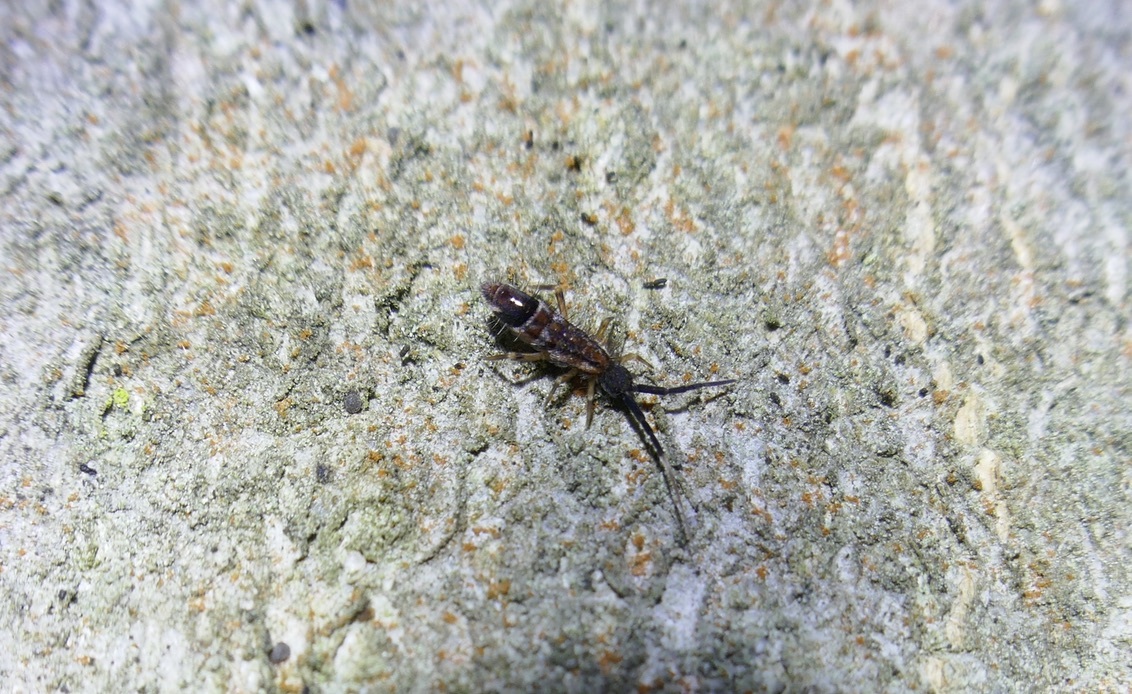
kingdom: Animalia
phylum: Arthropoda
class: Collembola
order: Entomobryomorpha
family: Entomobryidae
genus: Entomobrya
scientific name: Entomobrya nivalis
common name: Cosmopolitan springtail
